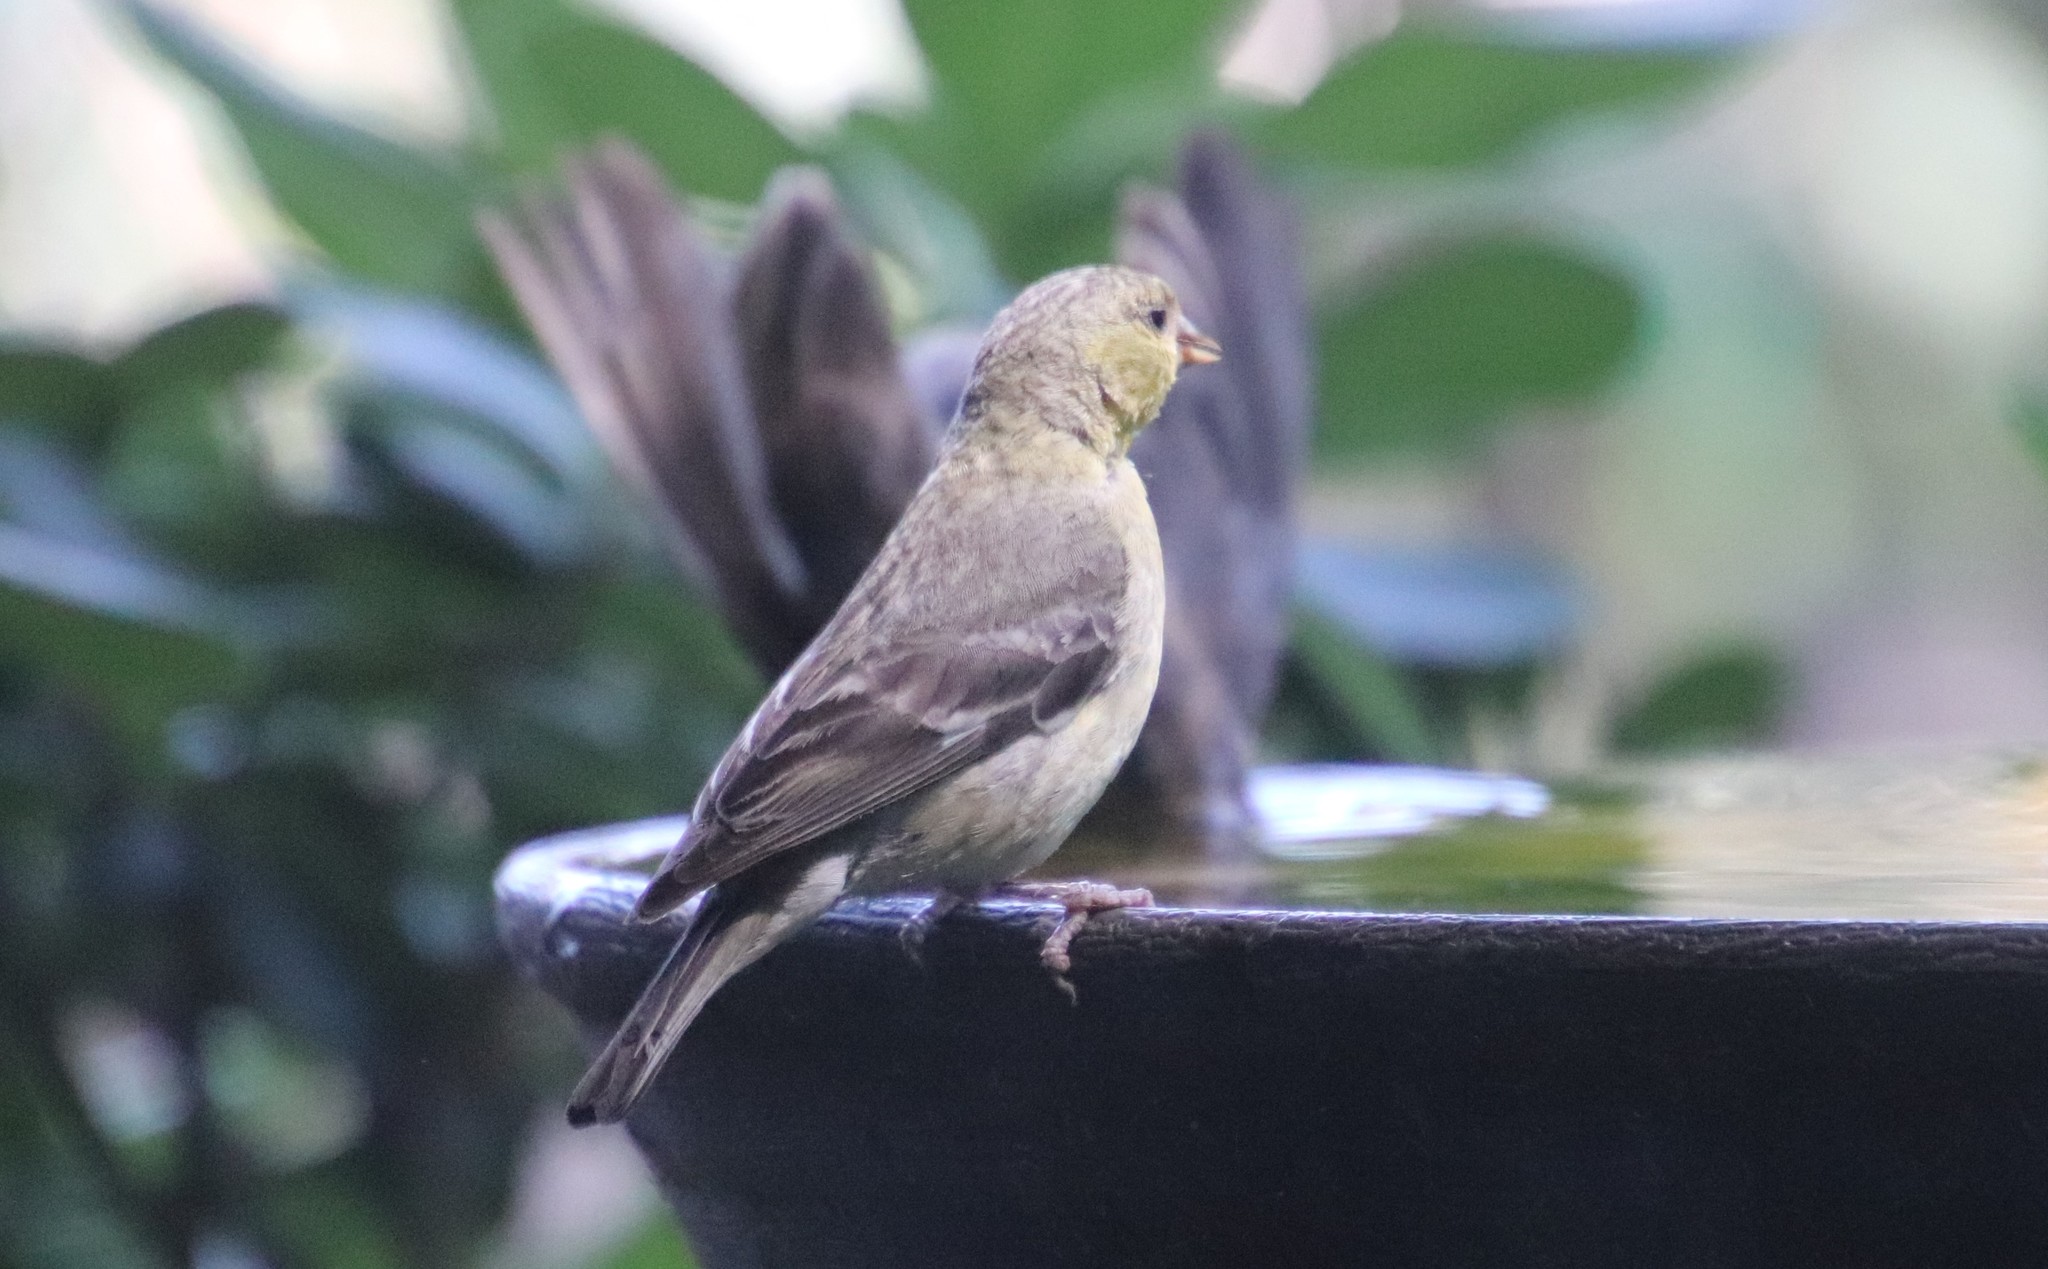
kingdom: Animalia
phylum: Chordata
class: Aves
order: Passeriformes
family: Fringillidae
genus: Spinus
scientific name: Spinus psaltria
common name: Lesser goldfinch
